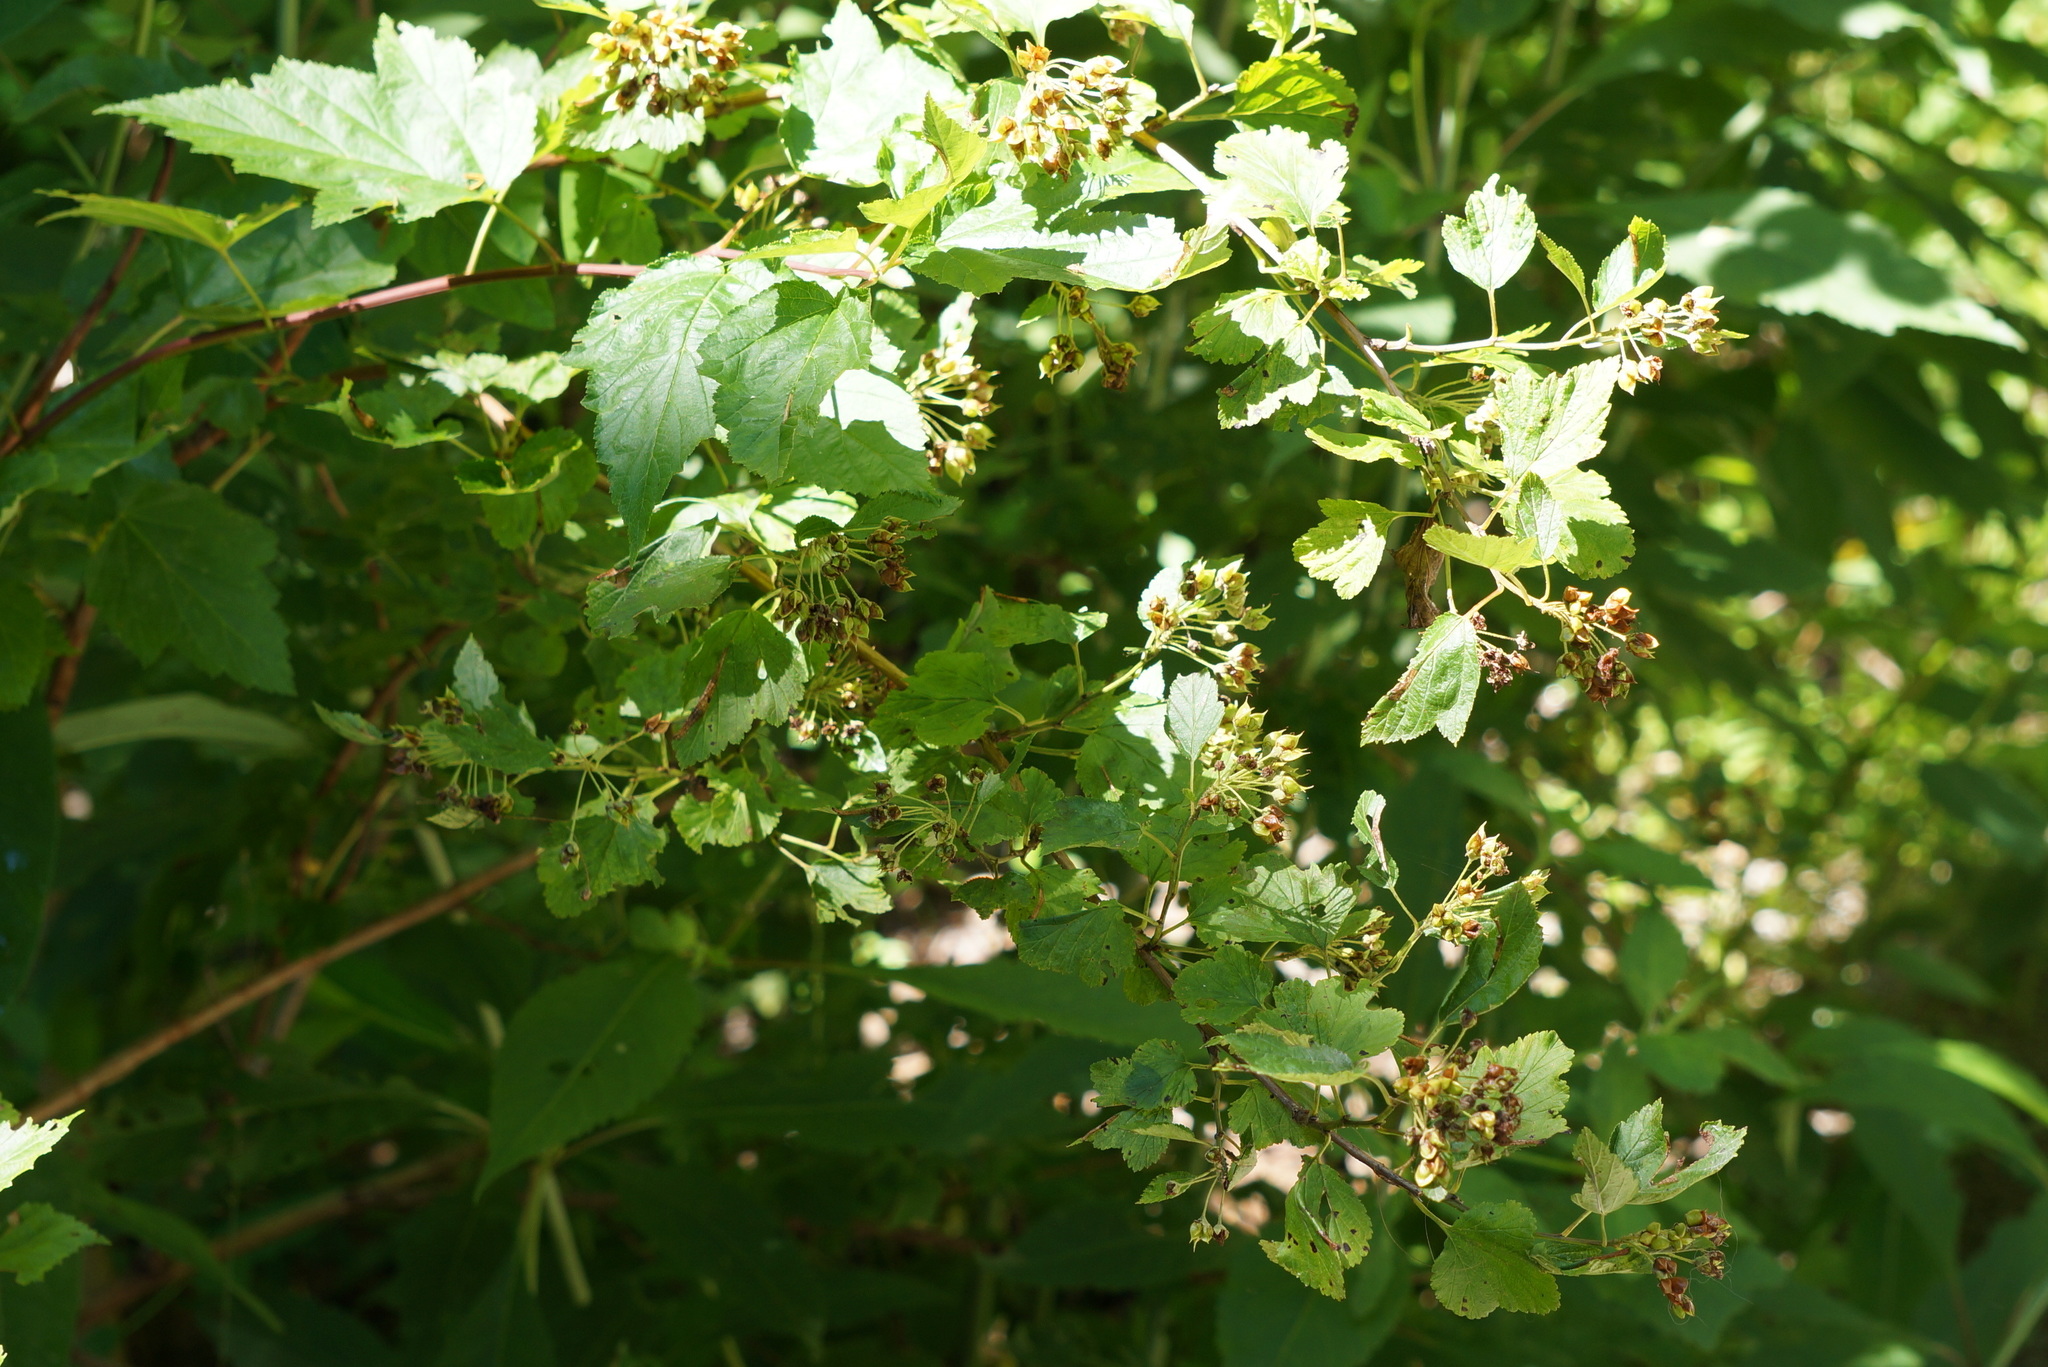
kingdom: Plantae
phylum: Tracheophyta
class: Magnoliopsida
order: Rosales
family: Rosaceae
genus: Physocarpus
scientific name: Physocarpus opulifolius
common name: Ninebark
